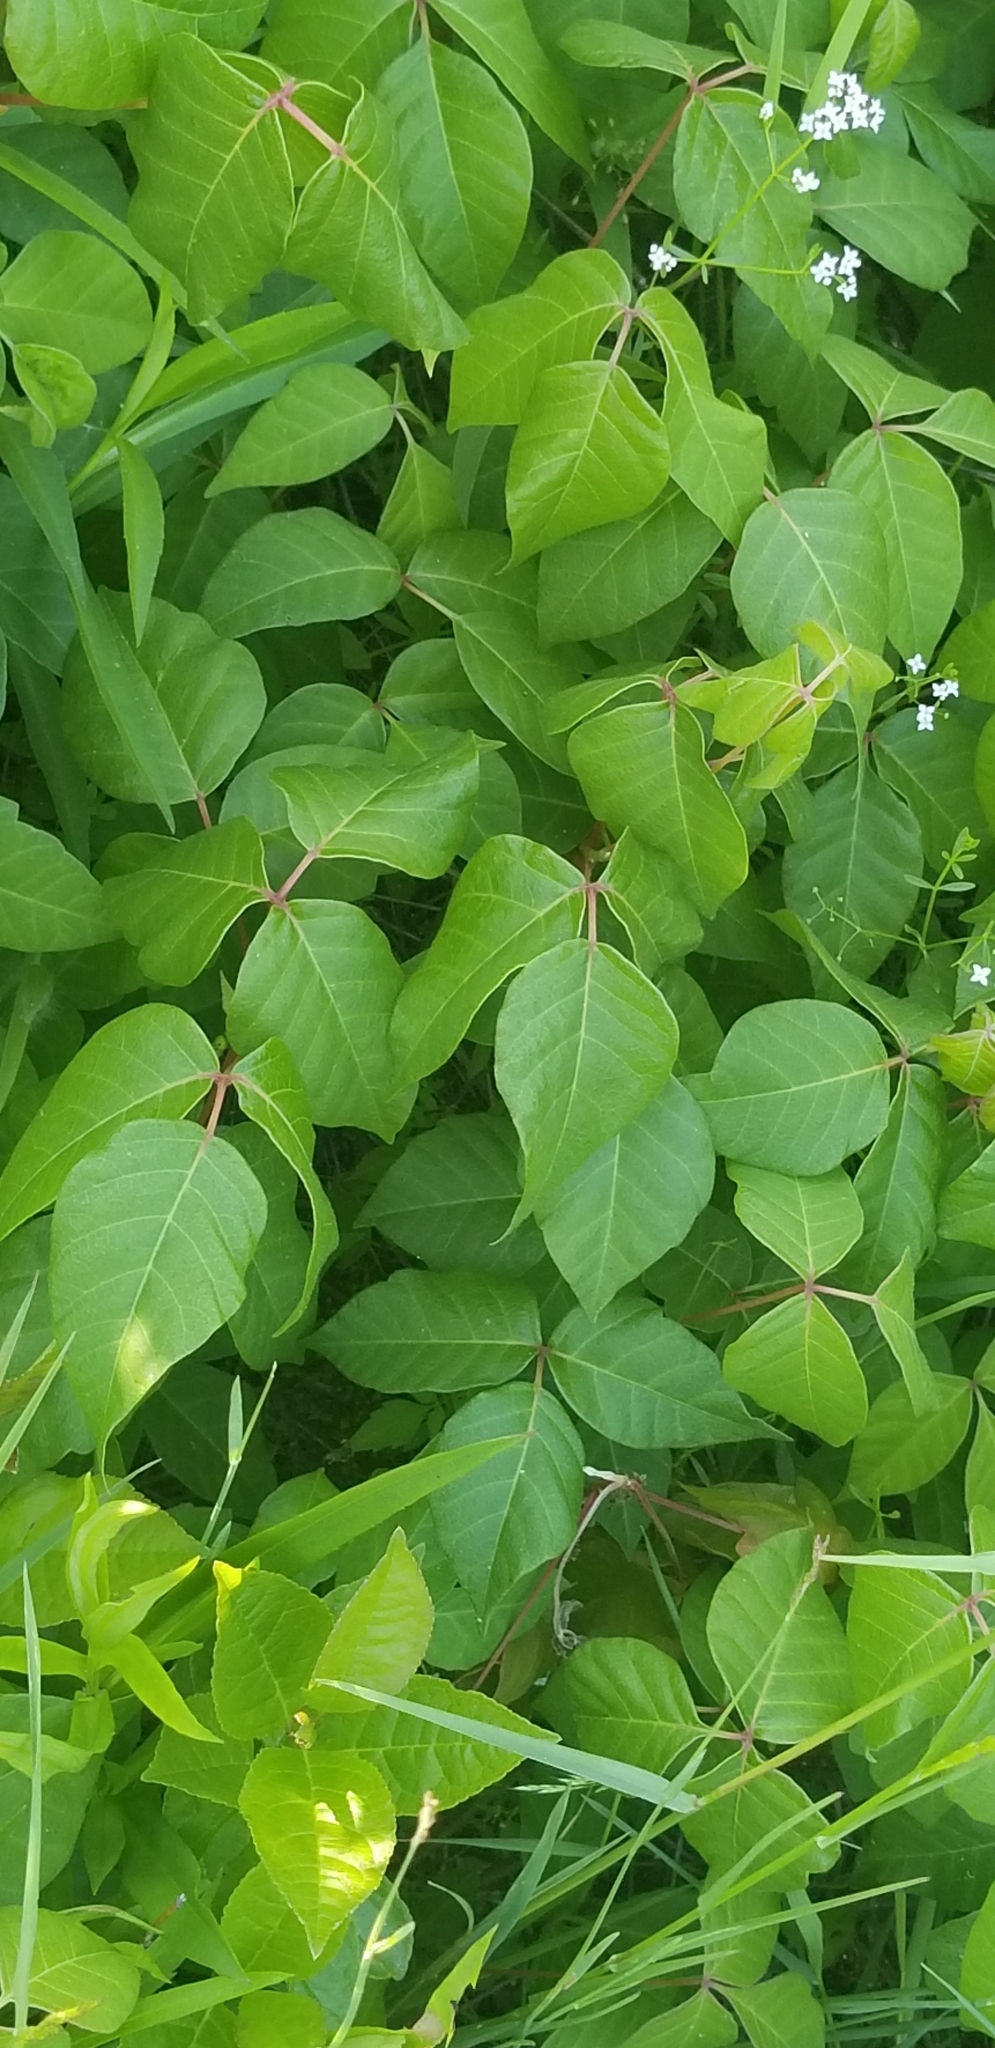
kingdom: Plantae
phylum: Tracheophyta
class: Magnoliopsida
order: Sapindales
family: Anacardiaceae
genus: Toxicodendron
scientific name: Toxicodendron radicans
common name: Poison ivy
